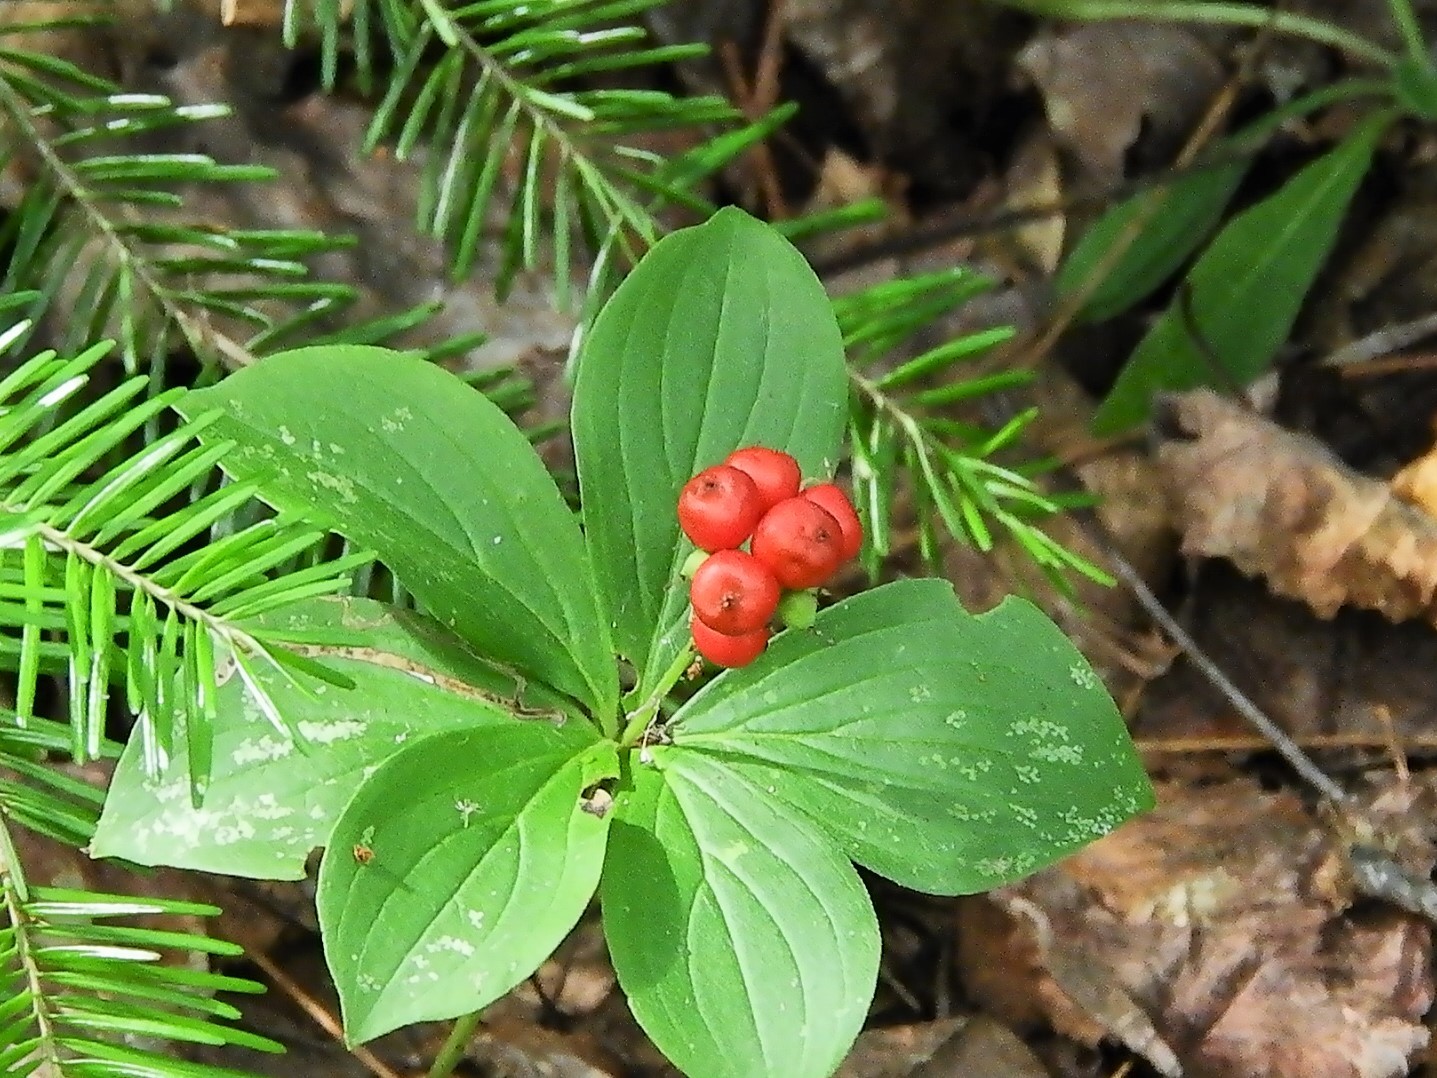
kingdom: Plantae
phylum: Tracheophyta
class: Magnoliopsida
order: Cornales
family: Cornaceae
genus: Cornus
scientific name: Cornus canadensis
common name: Creeping dogwood
